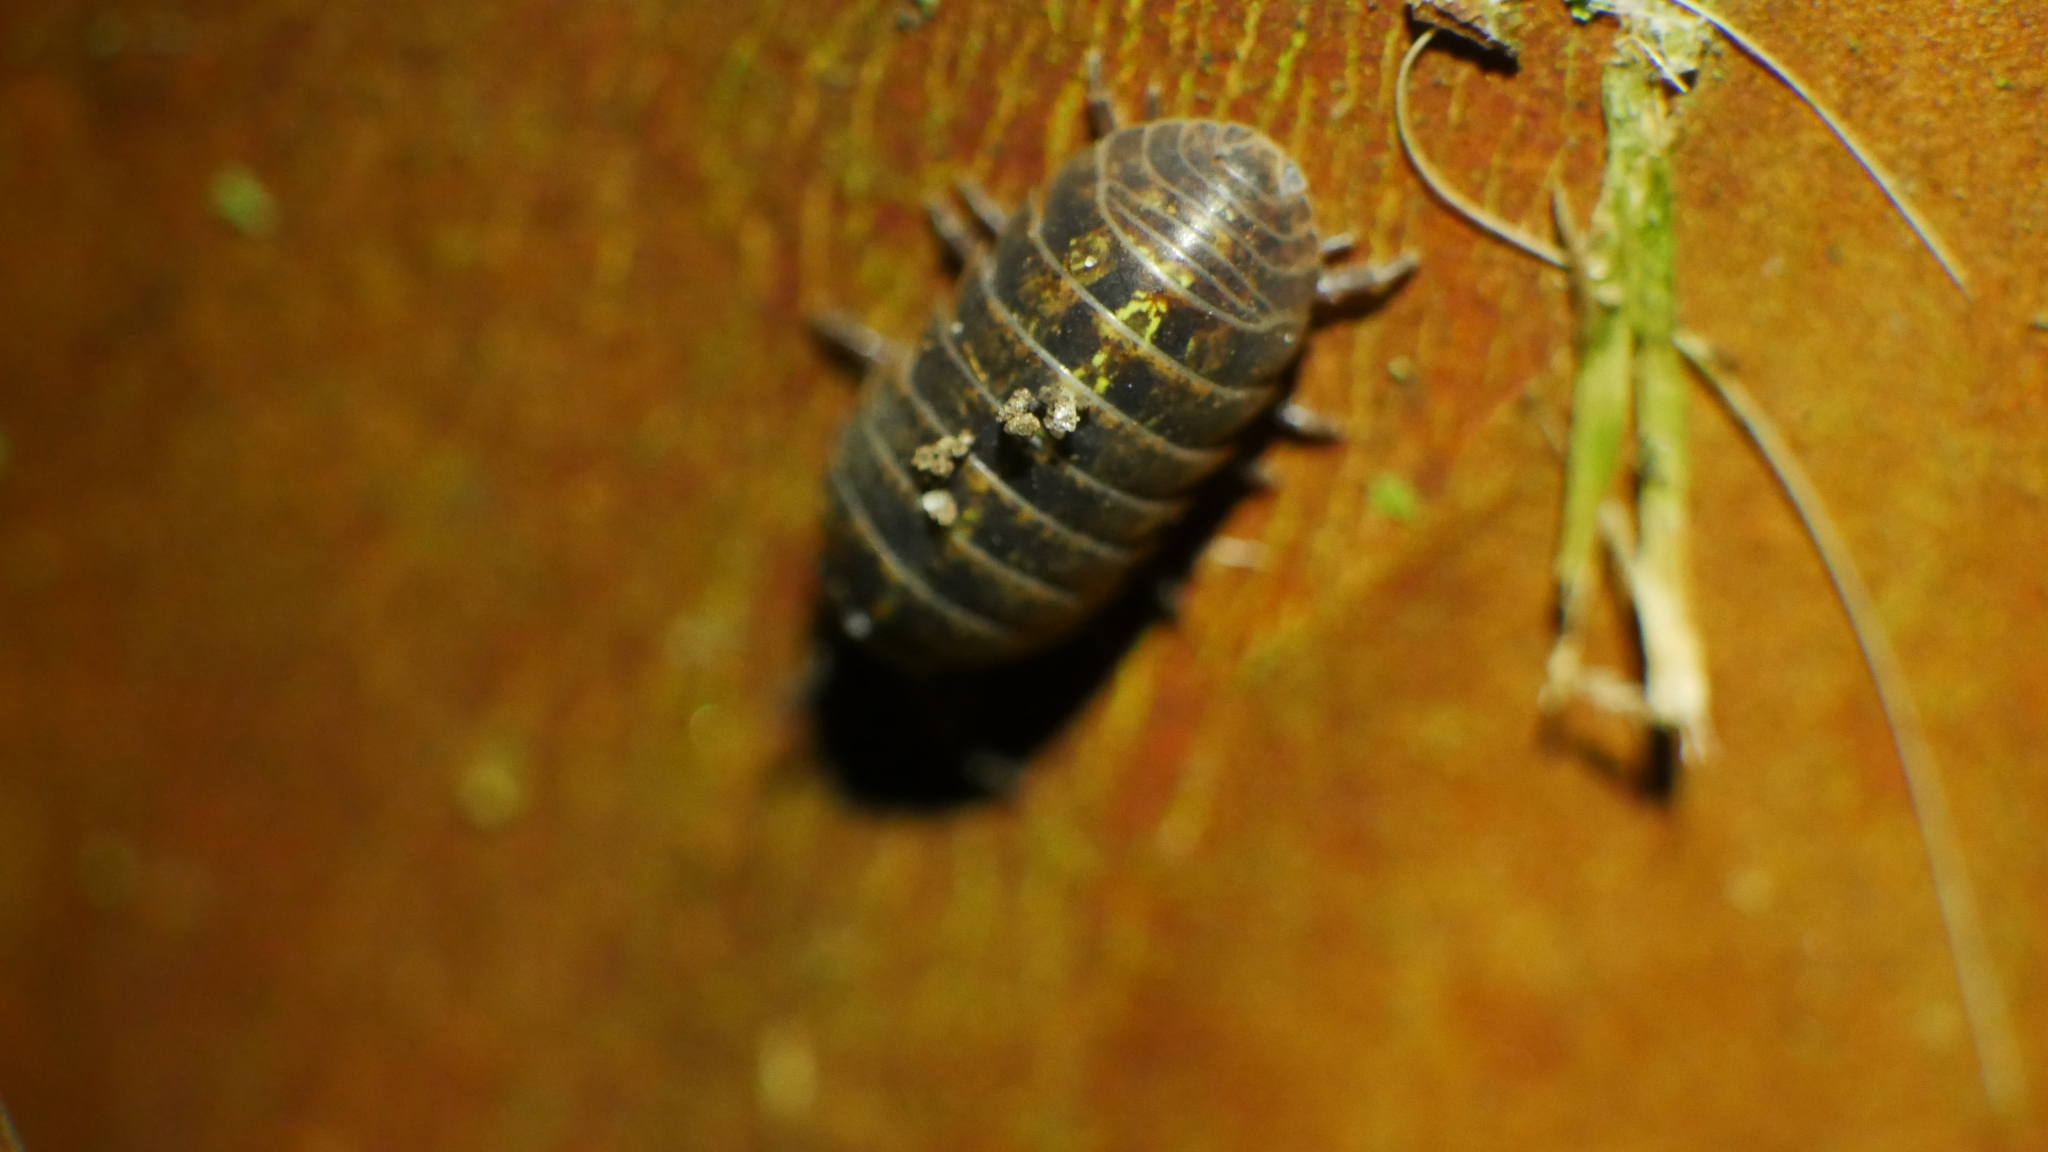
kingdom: Animalia
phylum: Arthropoda
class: Malacostraca
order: Isopoda
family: Armadillidiidae
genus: Armadillidium
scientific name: Armadillidium vulgare
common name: Common pill woodlouse
